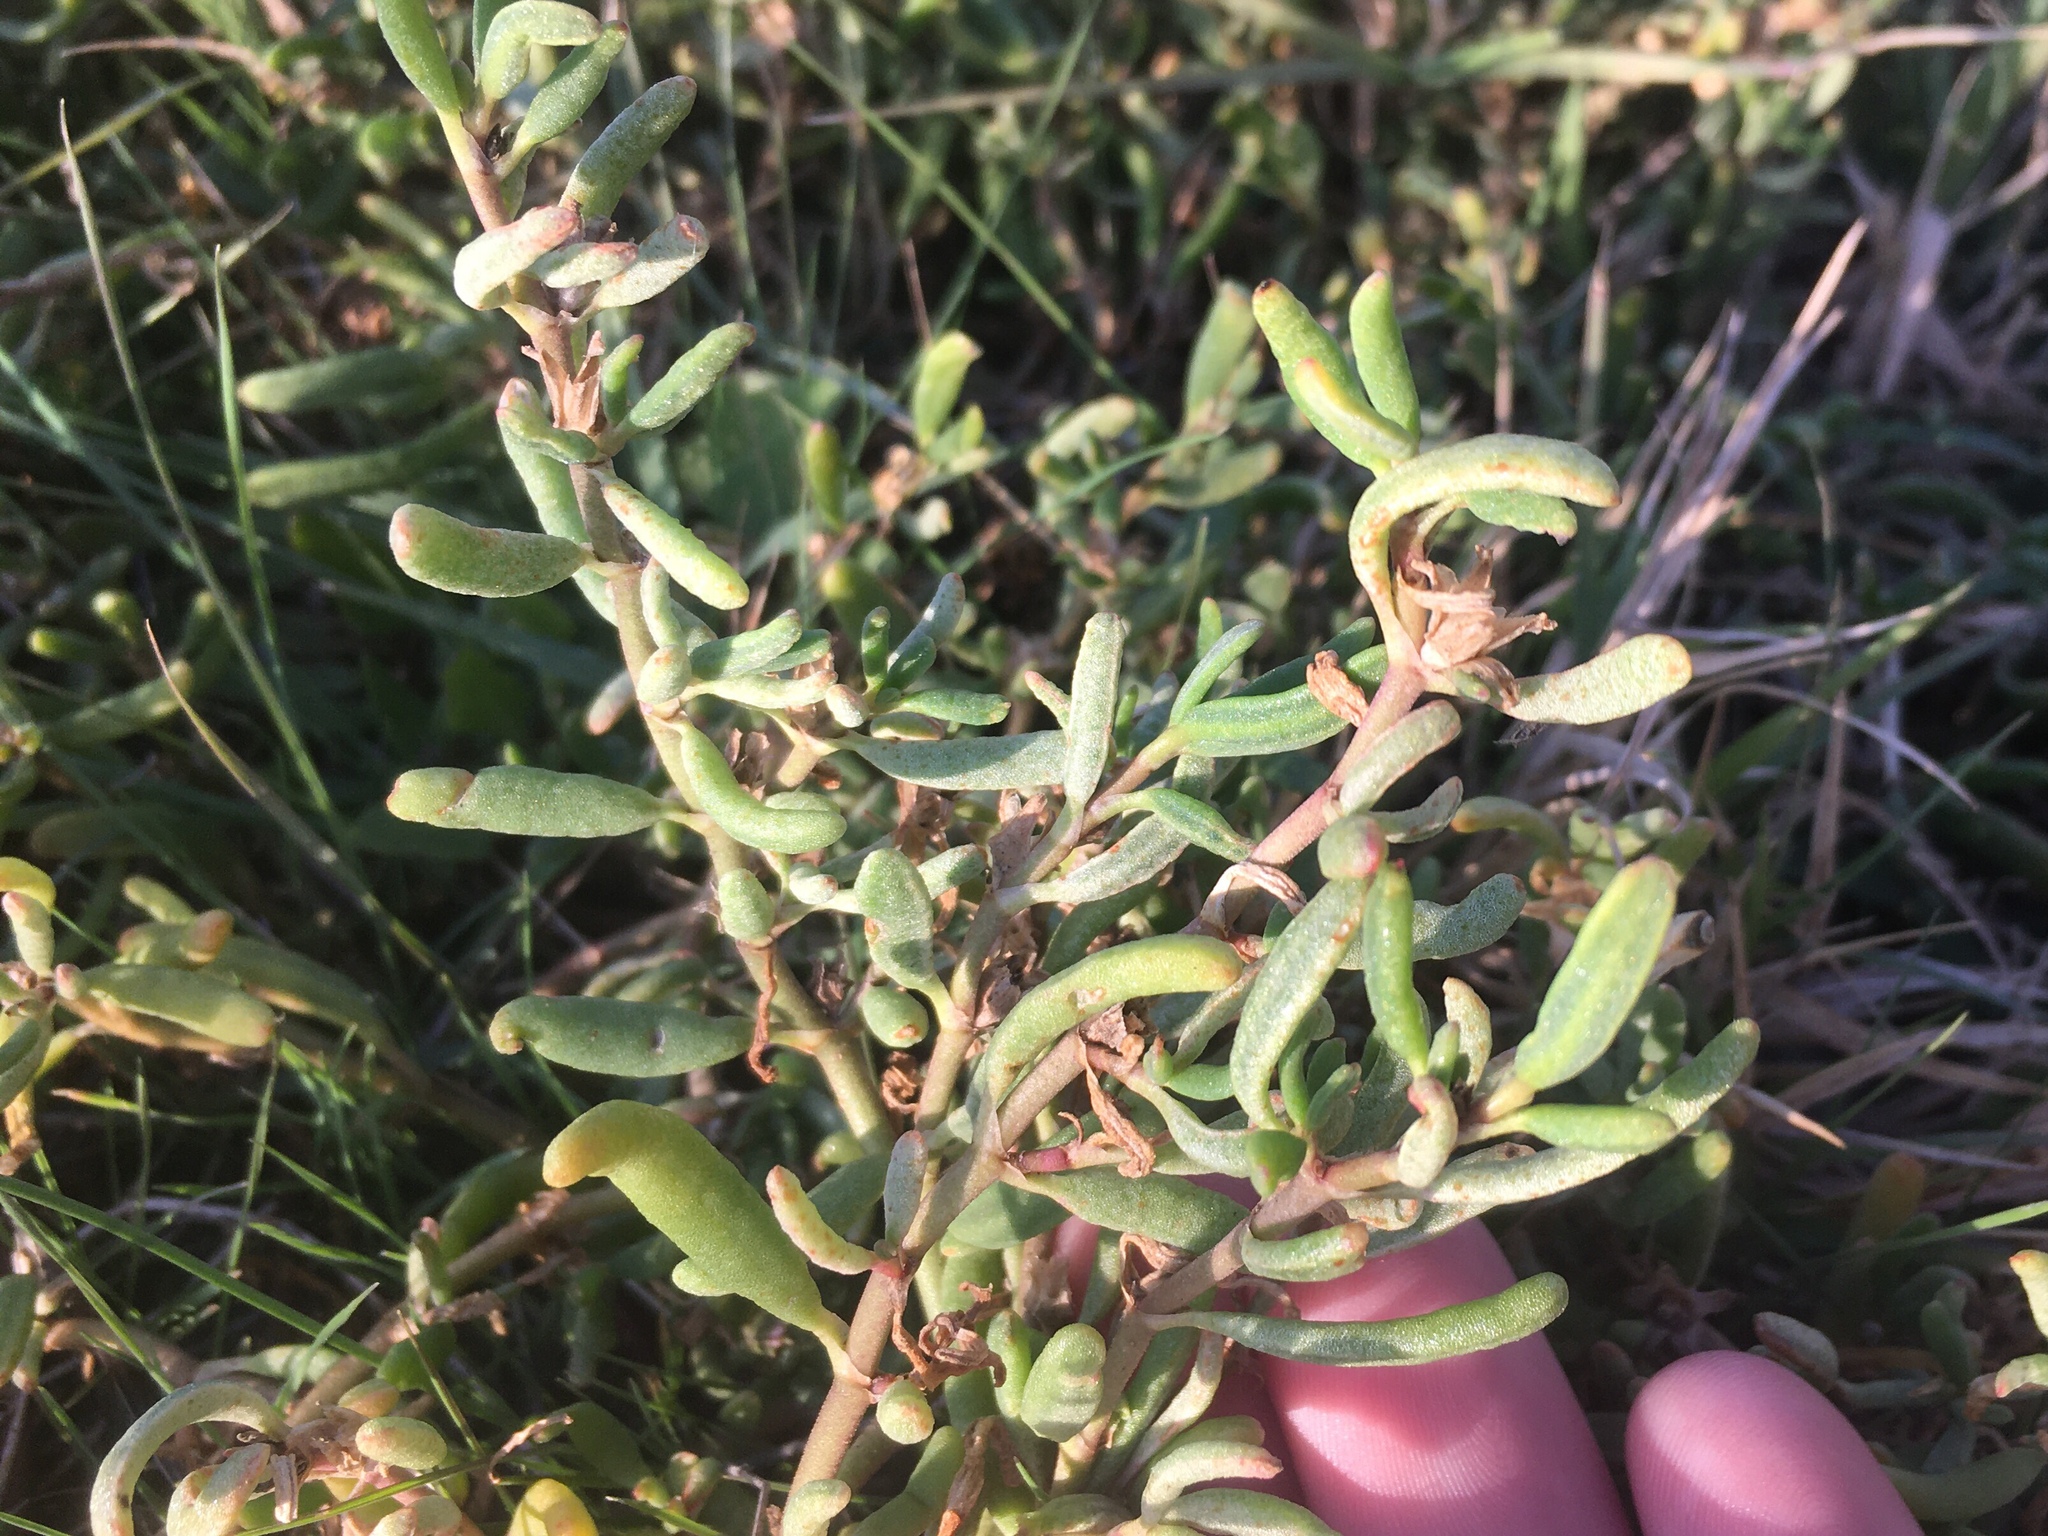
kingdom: Plantae
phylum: Tracheophyta
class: Magnoliopsida
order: Caryophyllales
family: Amaranthaceae
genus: Suaeda
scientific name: Suaeda divaricata
